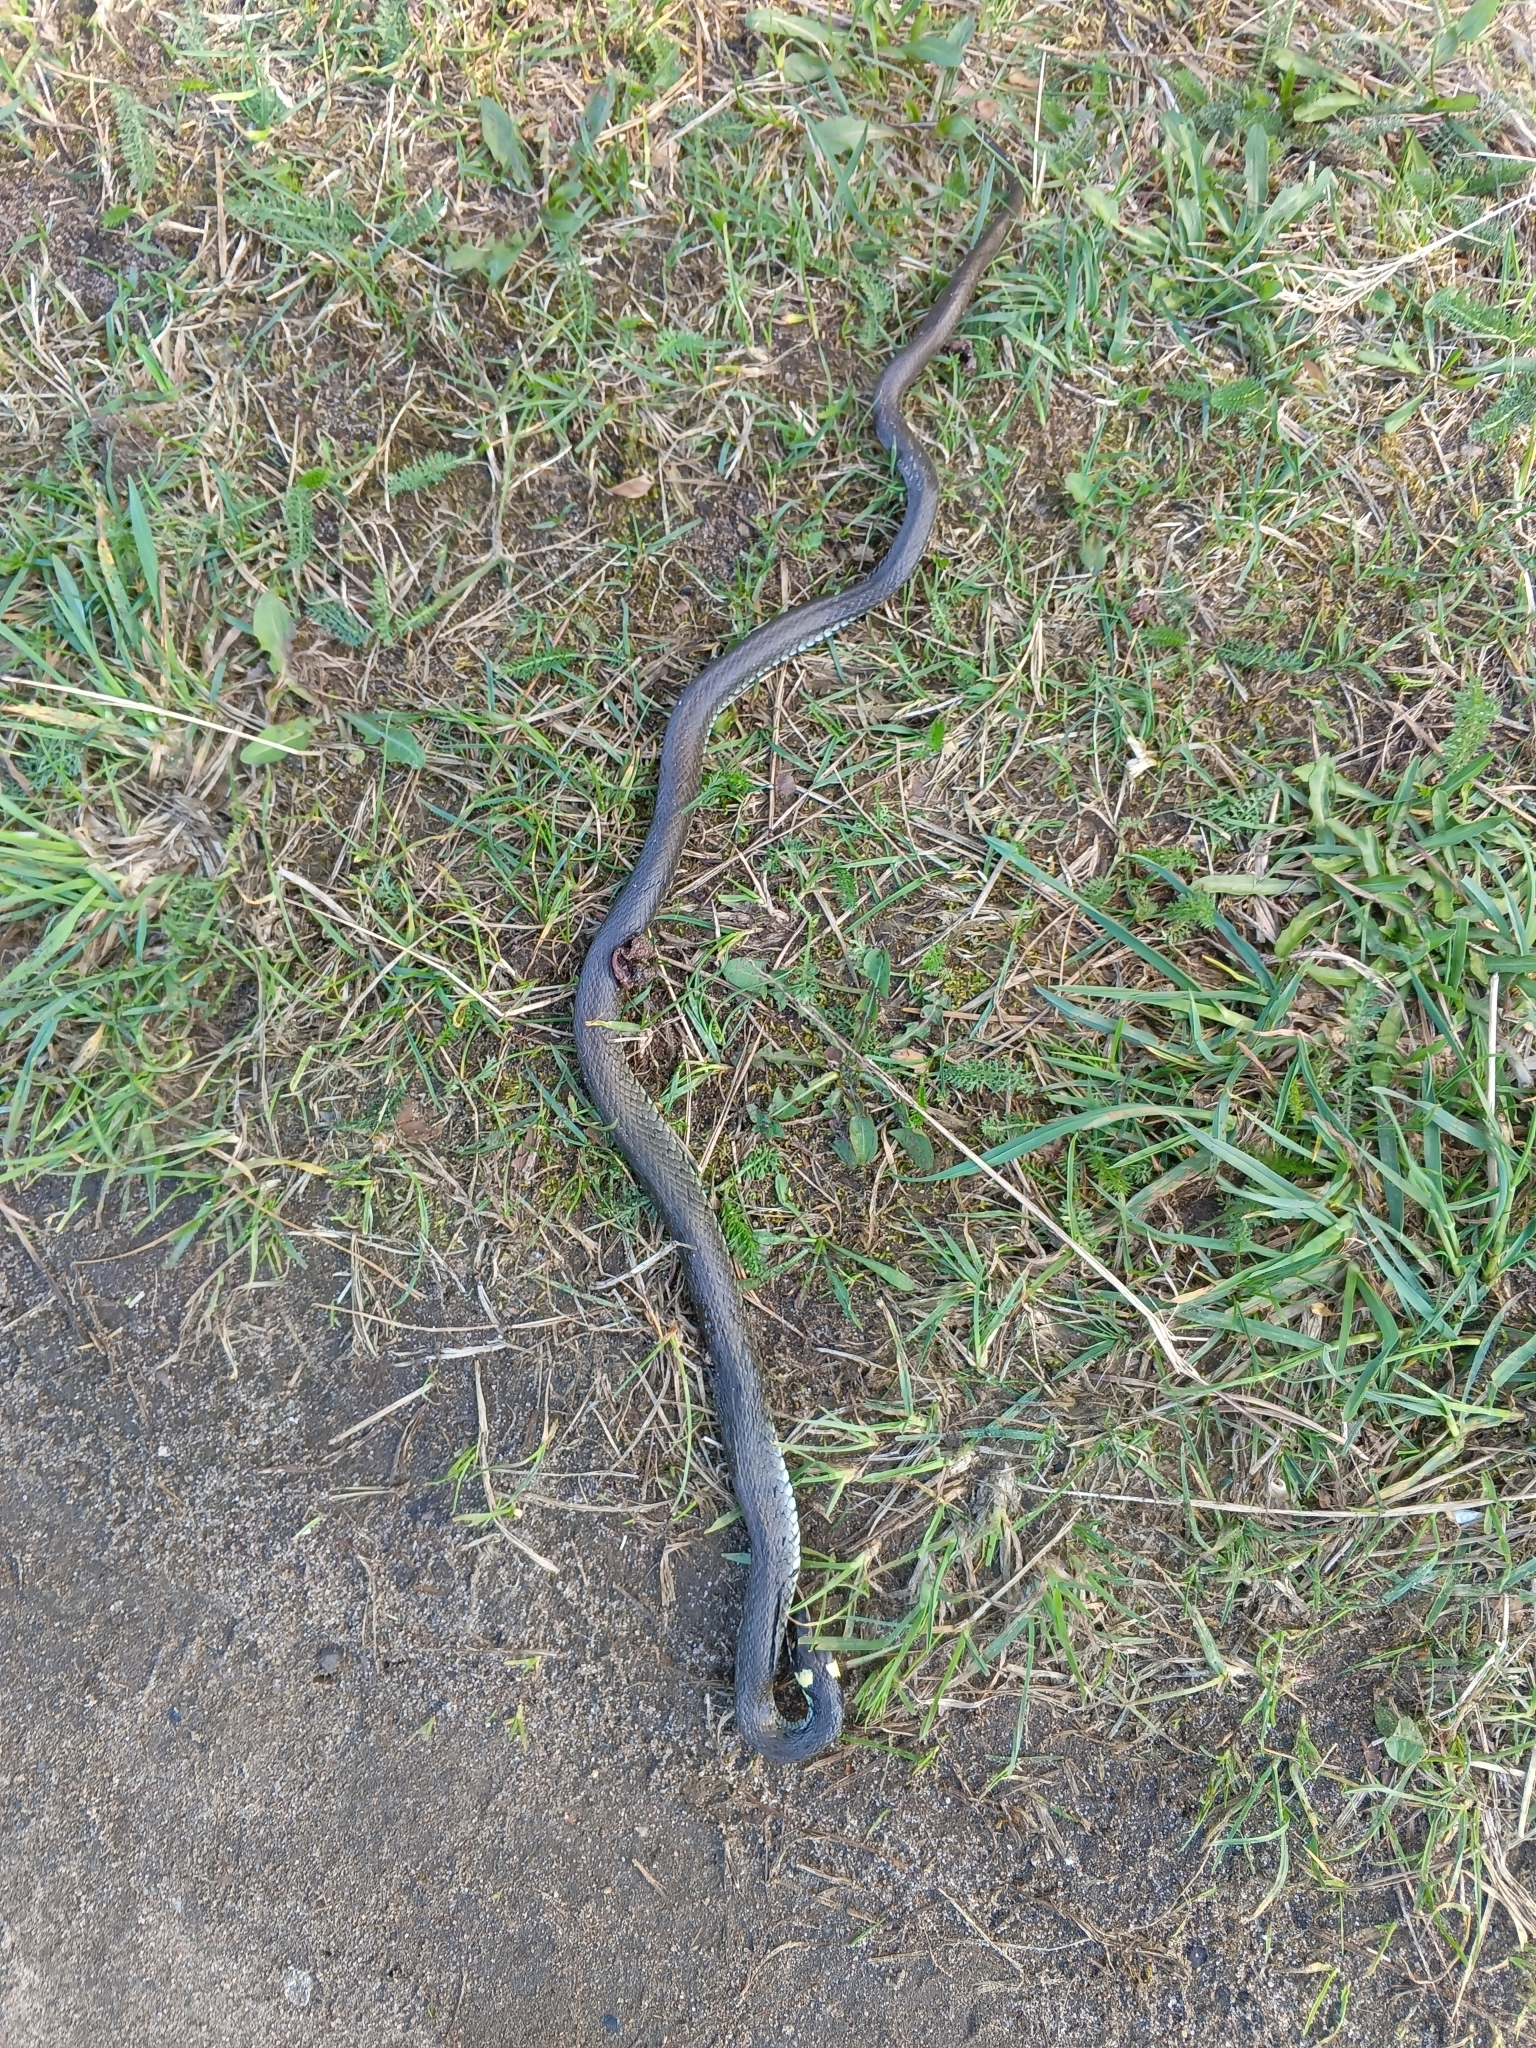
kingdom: Animalia
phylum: Chordata
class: Squamata
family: Colubridae
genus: Natrix
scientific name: Natrix natrix
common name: Grass snake
